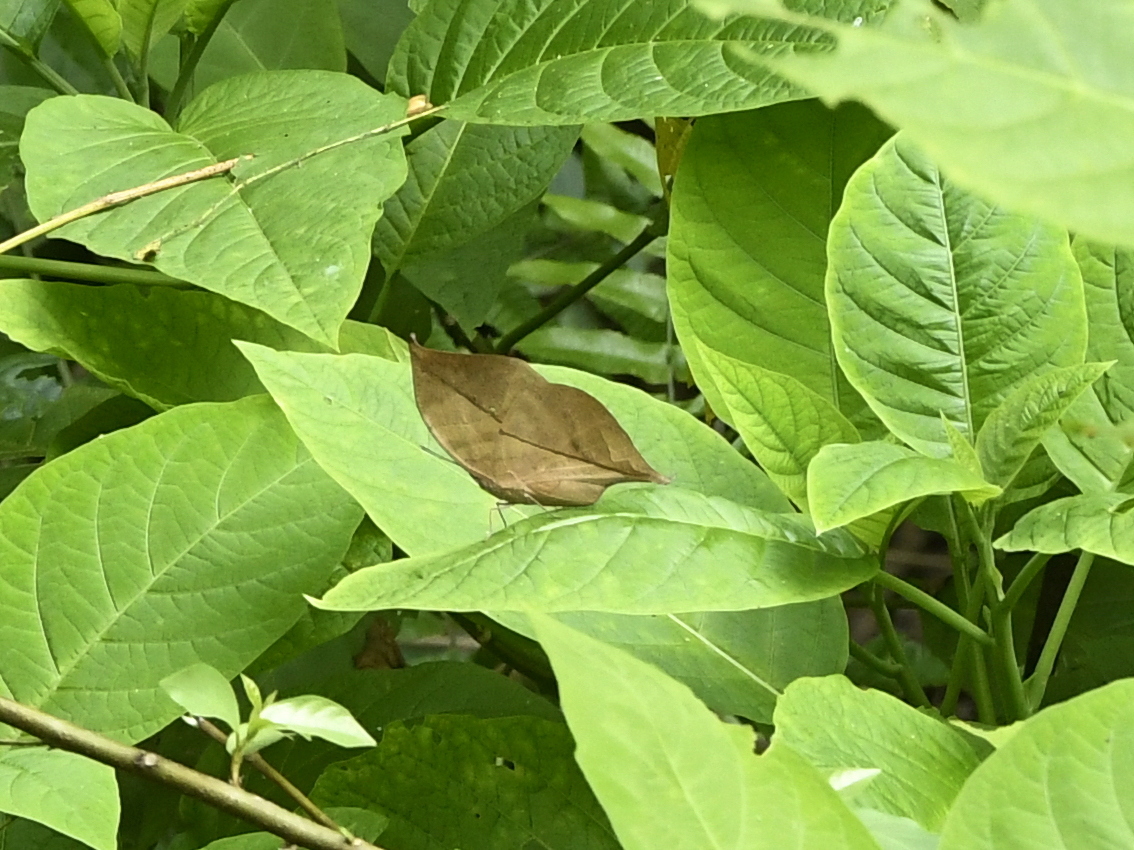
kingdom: Animalia
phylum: Arthropoda
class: Insecta
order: Lepidoptera
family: Nymphalidae
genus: Kallima
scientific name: Kallima inachus
